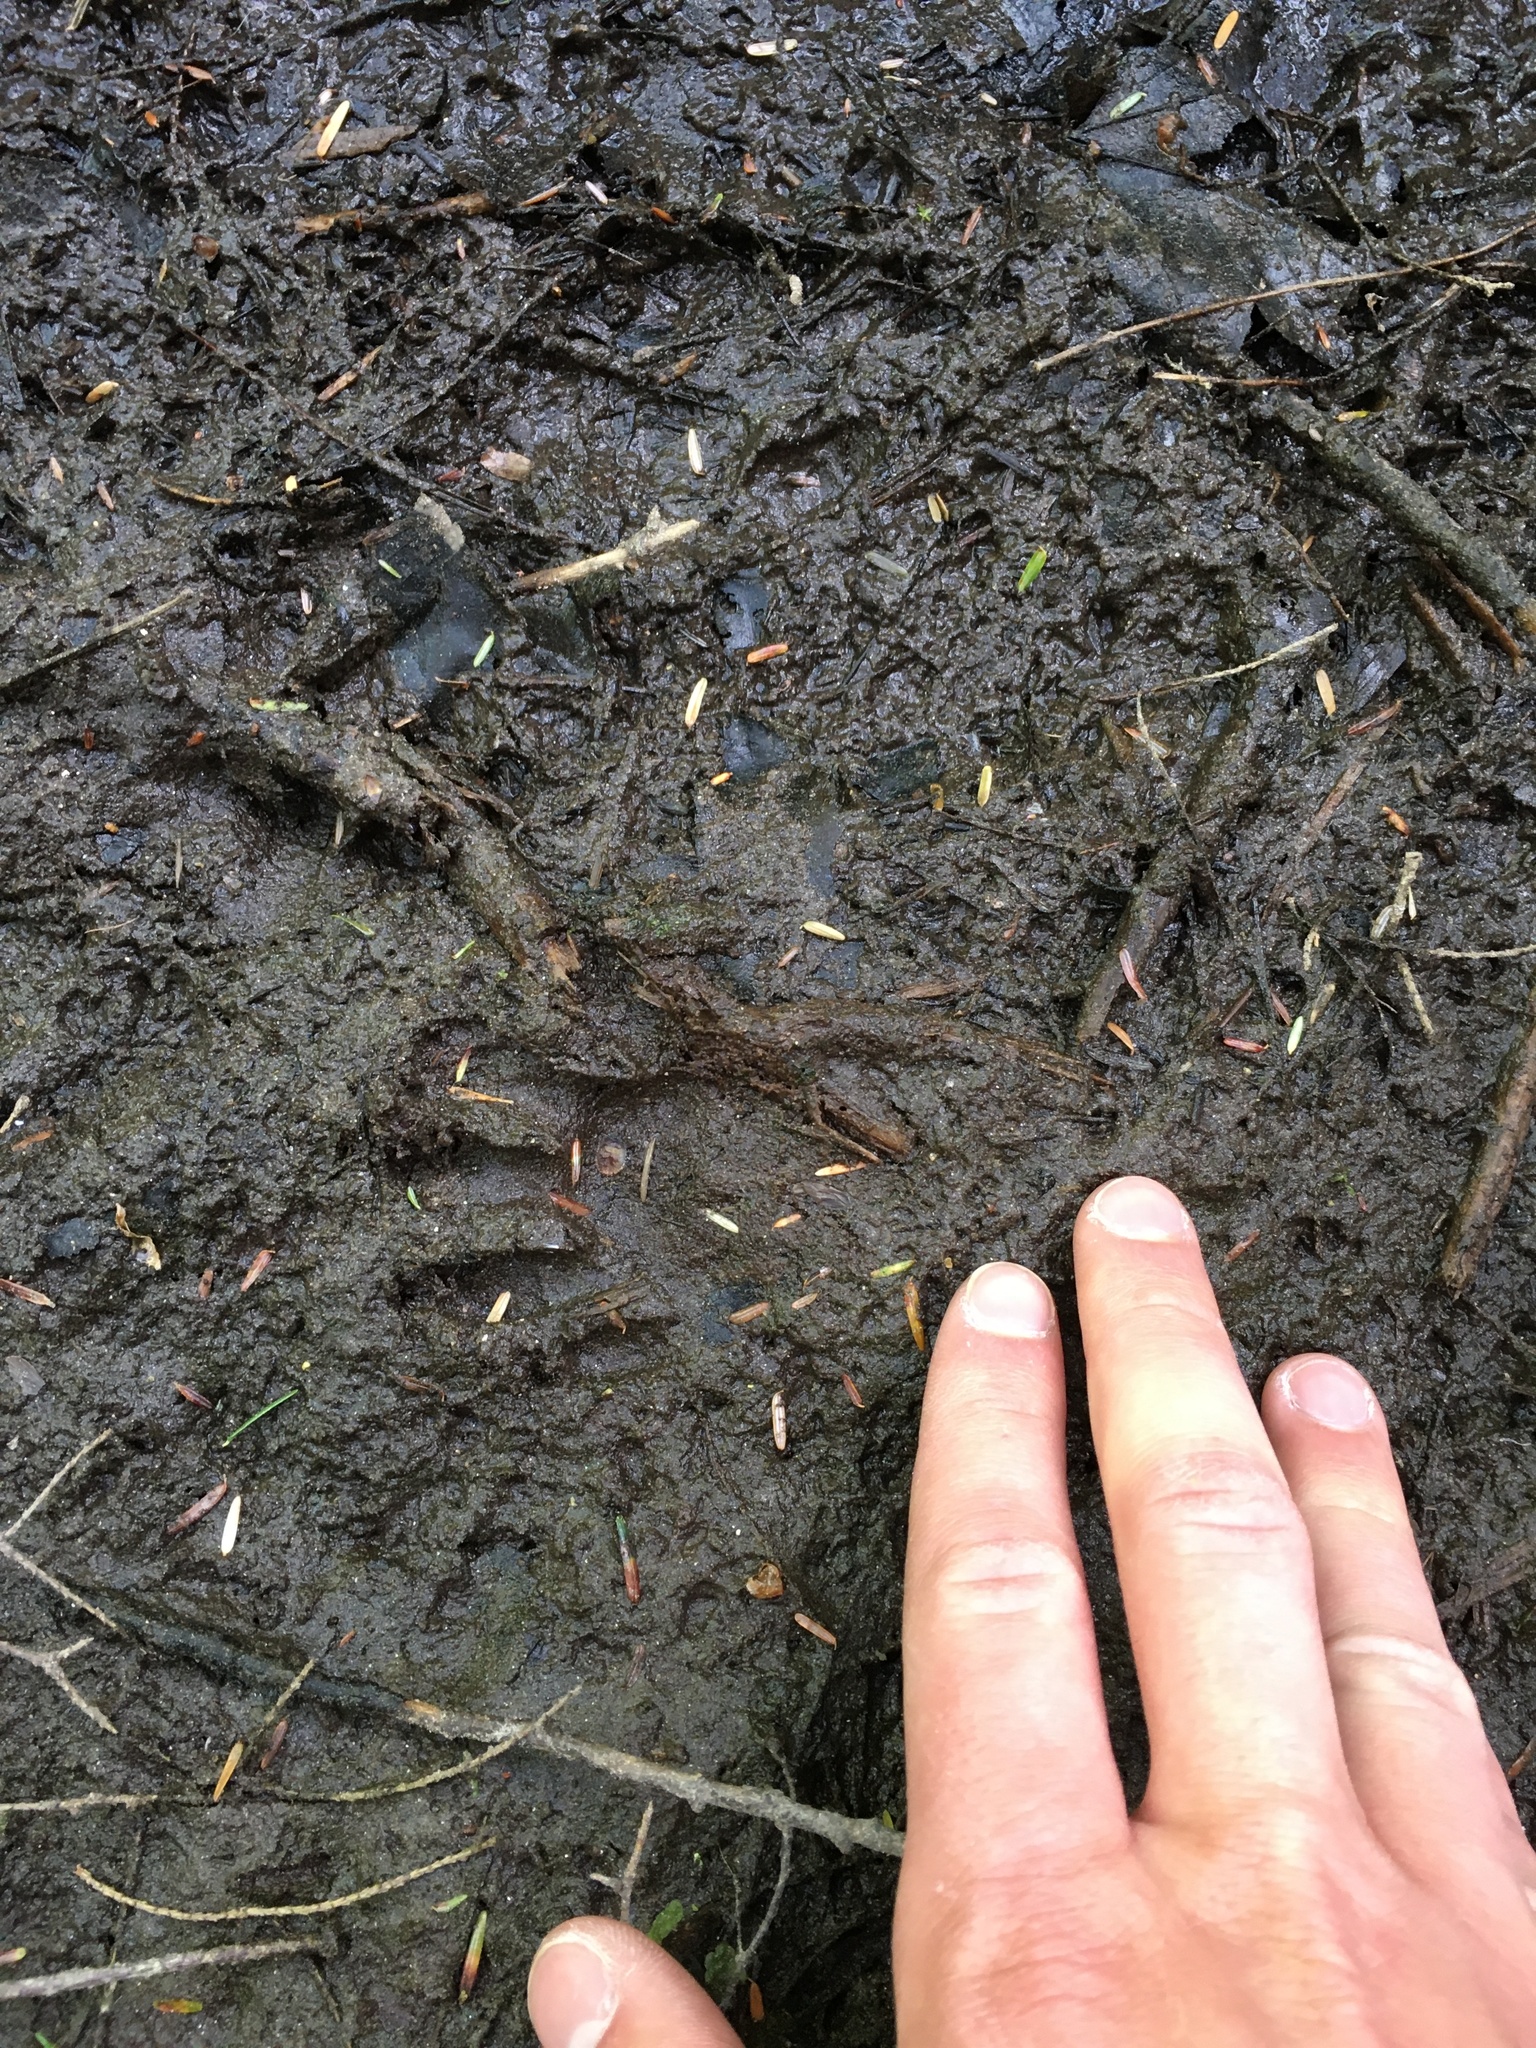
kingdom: Animalia
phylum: Chordata
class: Mammalia
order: Carnivora
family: Procyonidae
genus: Procyon
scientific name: Procyon lotor
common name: Raccoon
